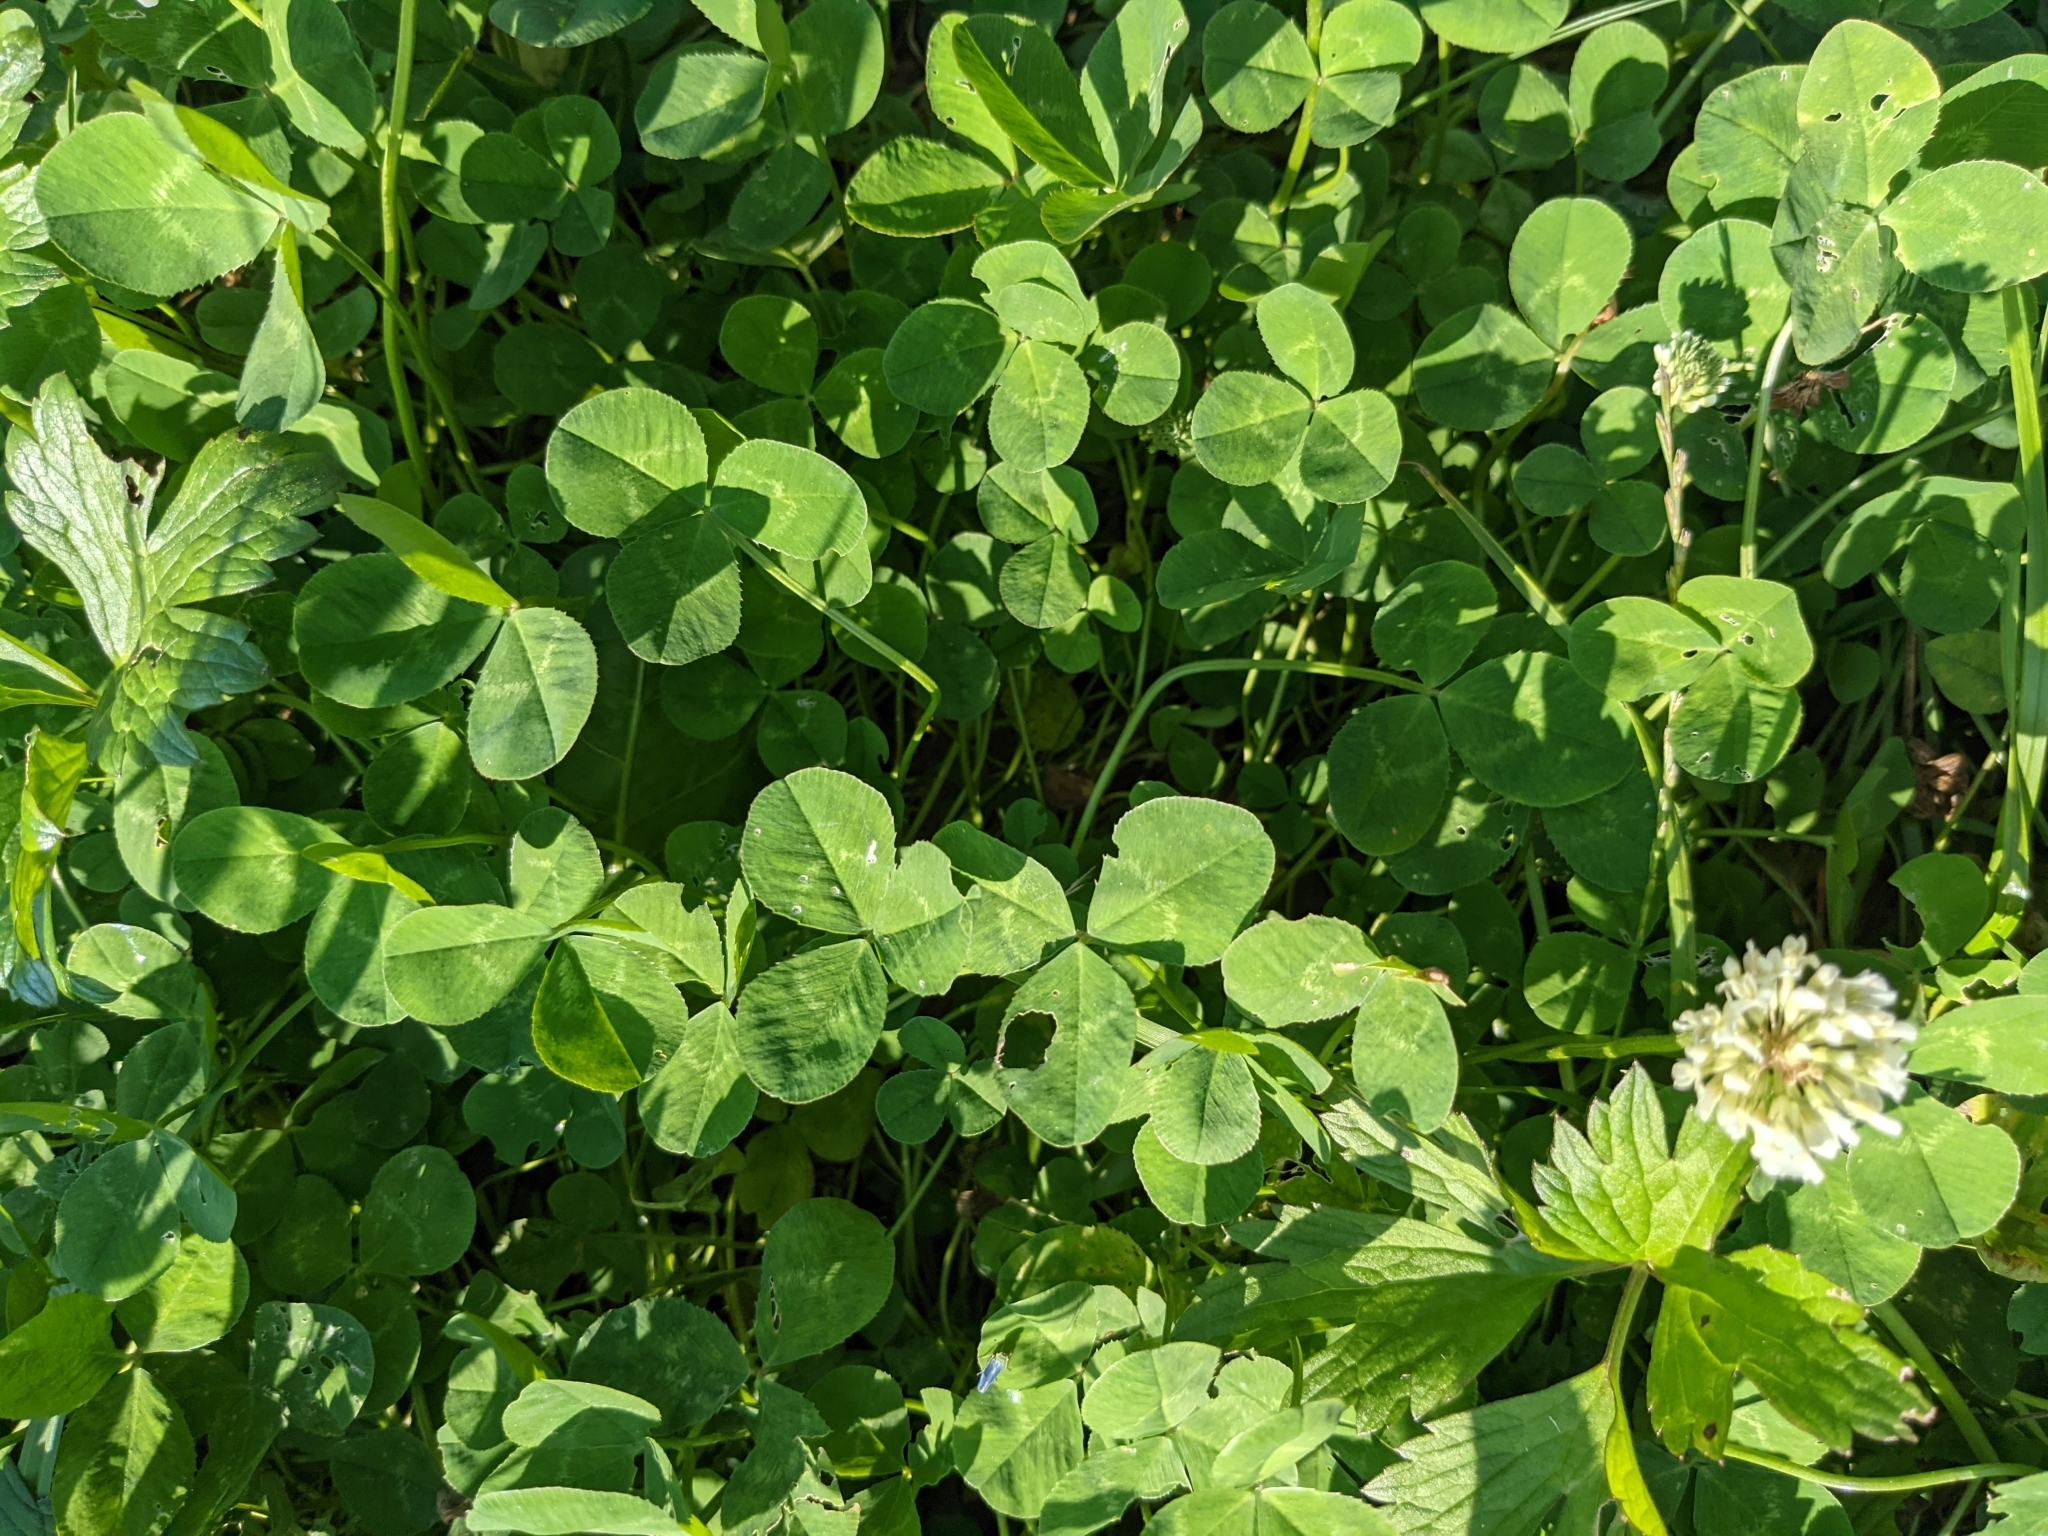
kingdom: Plantae
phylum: Tracheophyta
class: Magnoliopsida
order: Fabales
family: Fabaceae
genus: Trifolium
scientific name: Trifolium repens
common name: White clover
